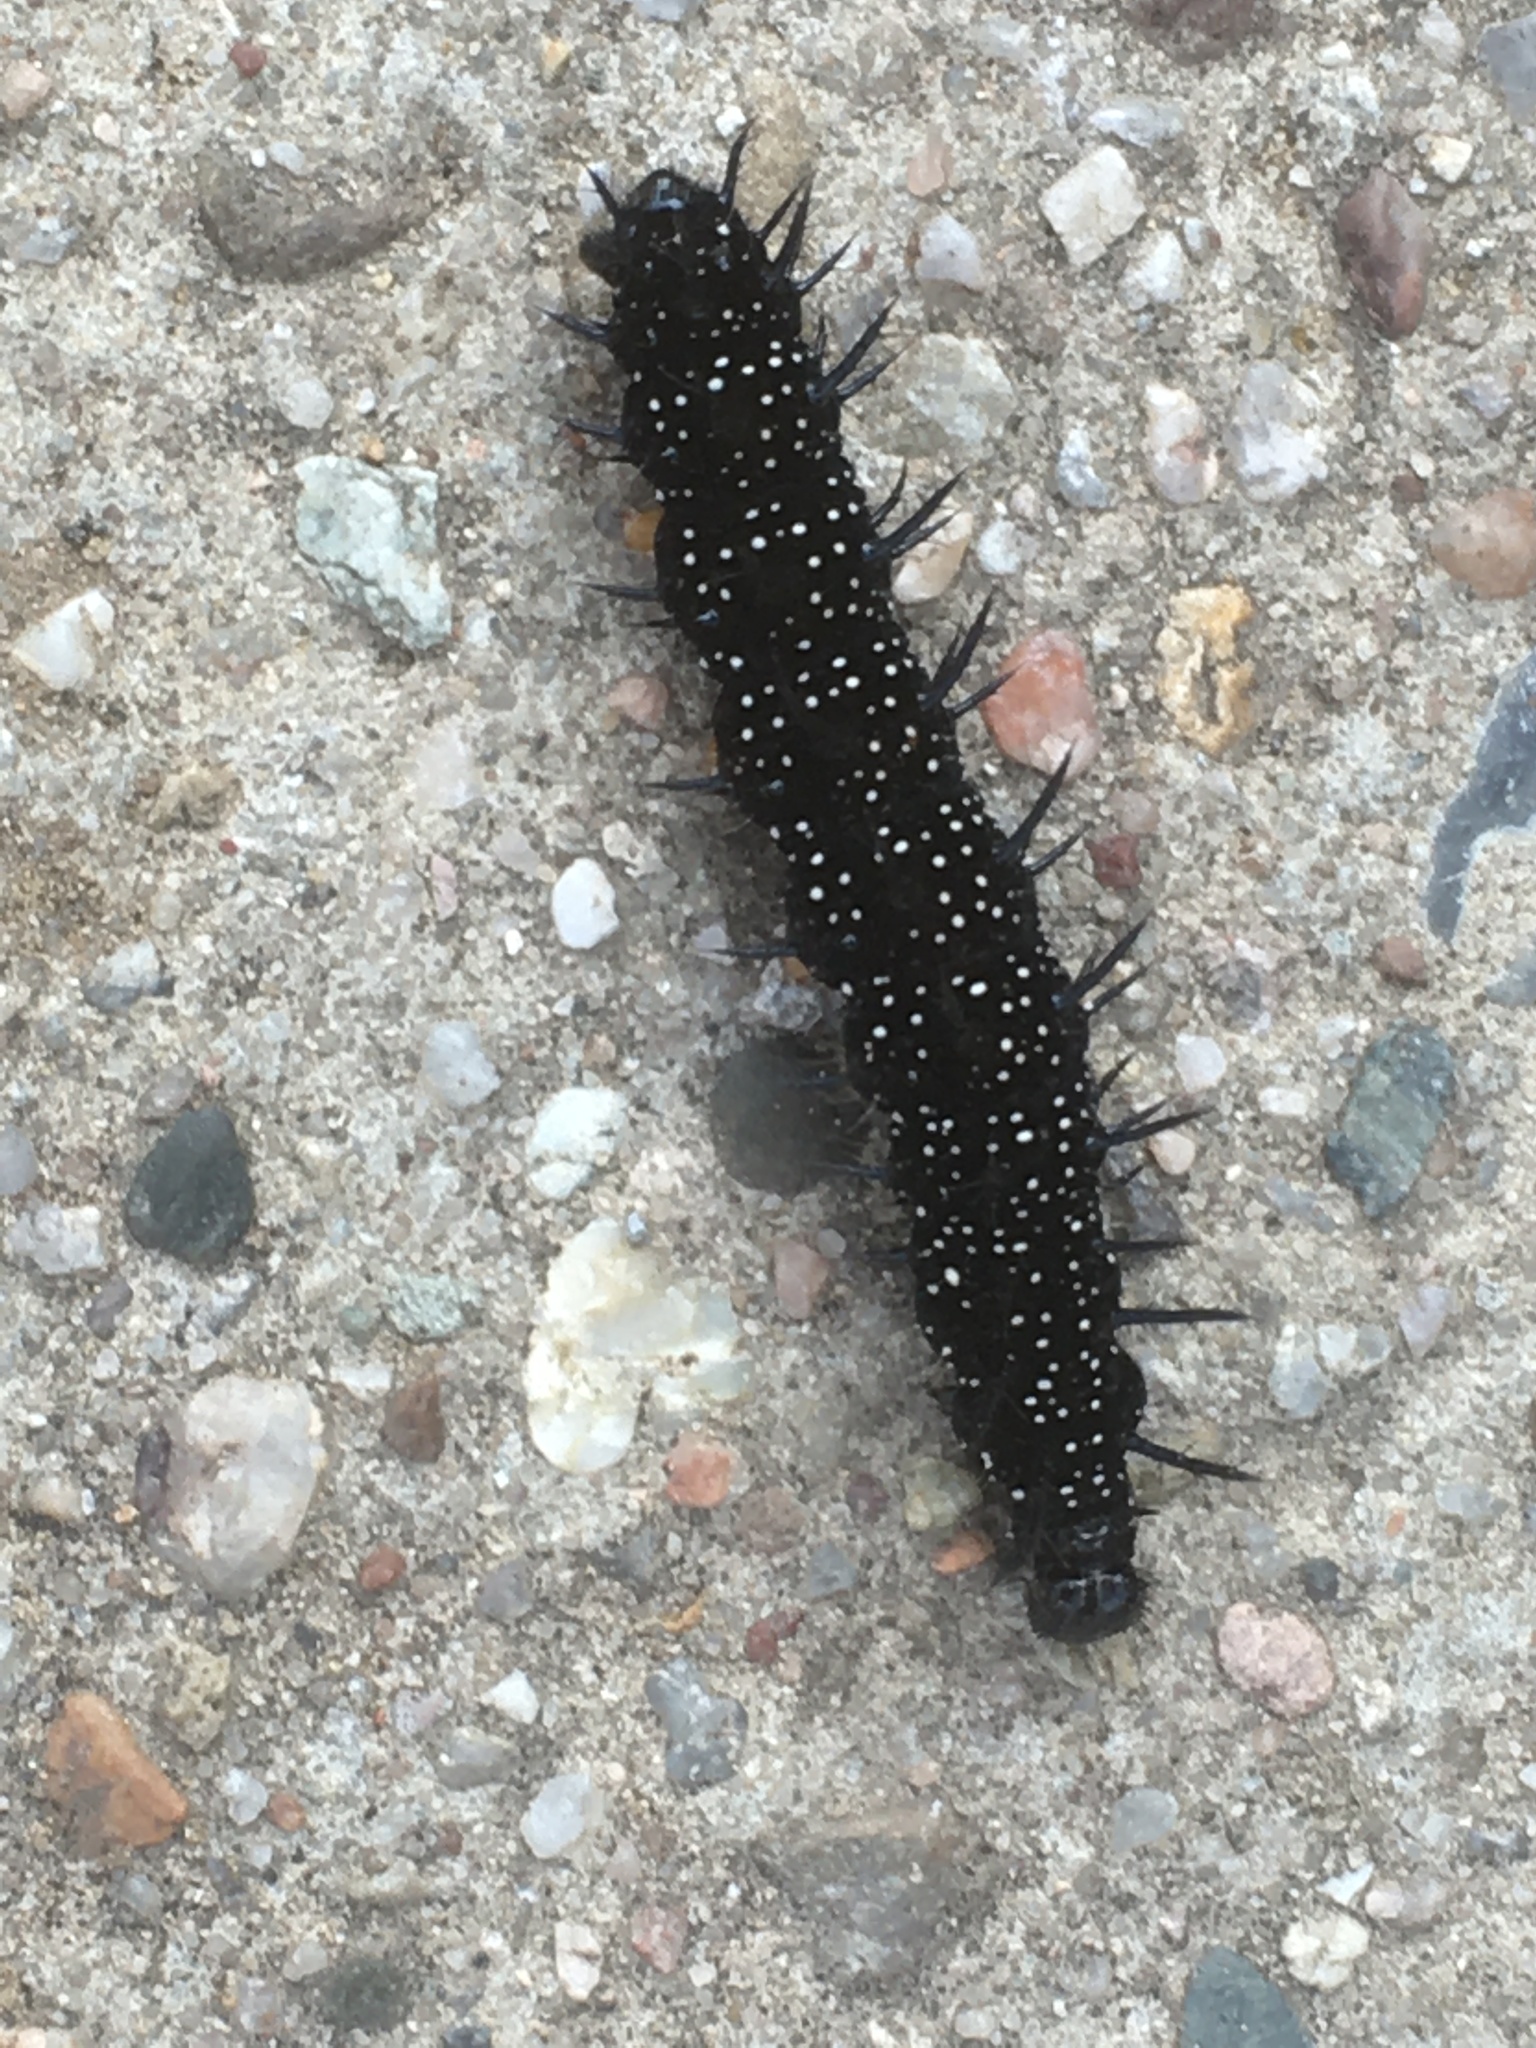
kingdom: Animalia
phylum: Arthropoda
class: Insecta
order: Lepidoptera
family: Nymphalidae
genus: Aglais
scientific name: Aglais io
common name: Peacock
